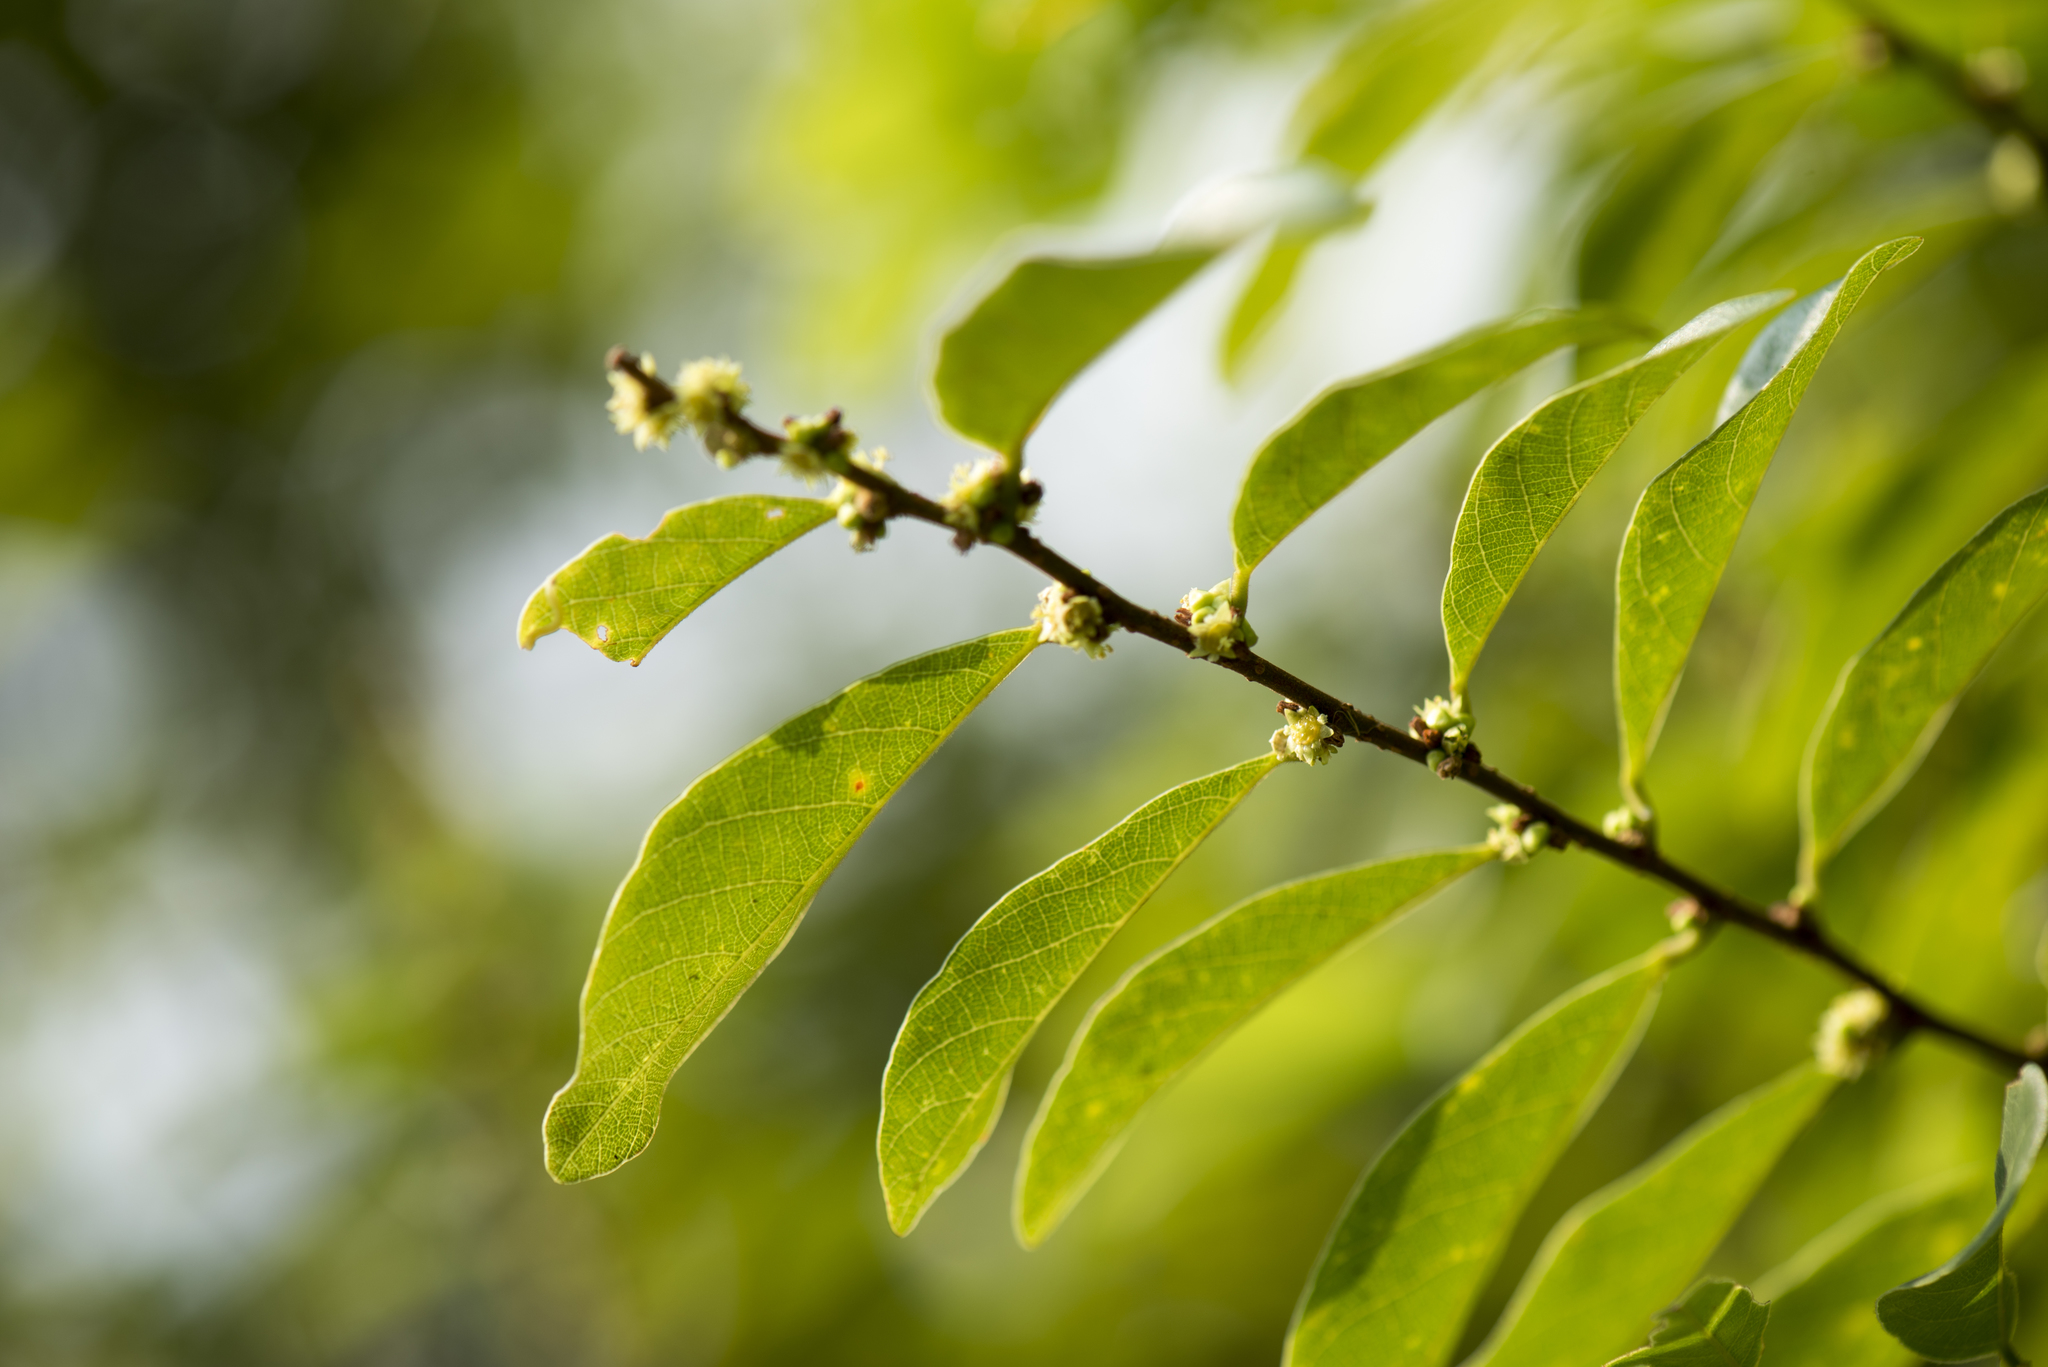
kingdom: Plantae
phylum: Tracheophyta
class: Magnoliopsida
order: Malpighiales
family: Phyllanthaceae
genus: Bridelia
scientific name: Bridelia tomentosa
